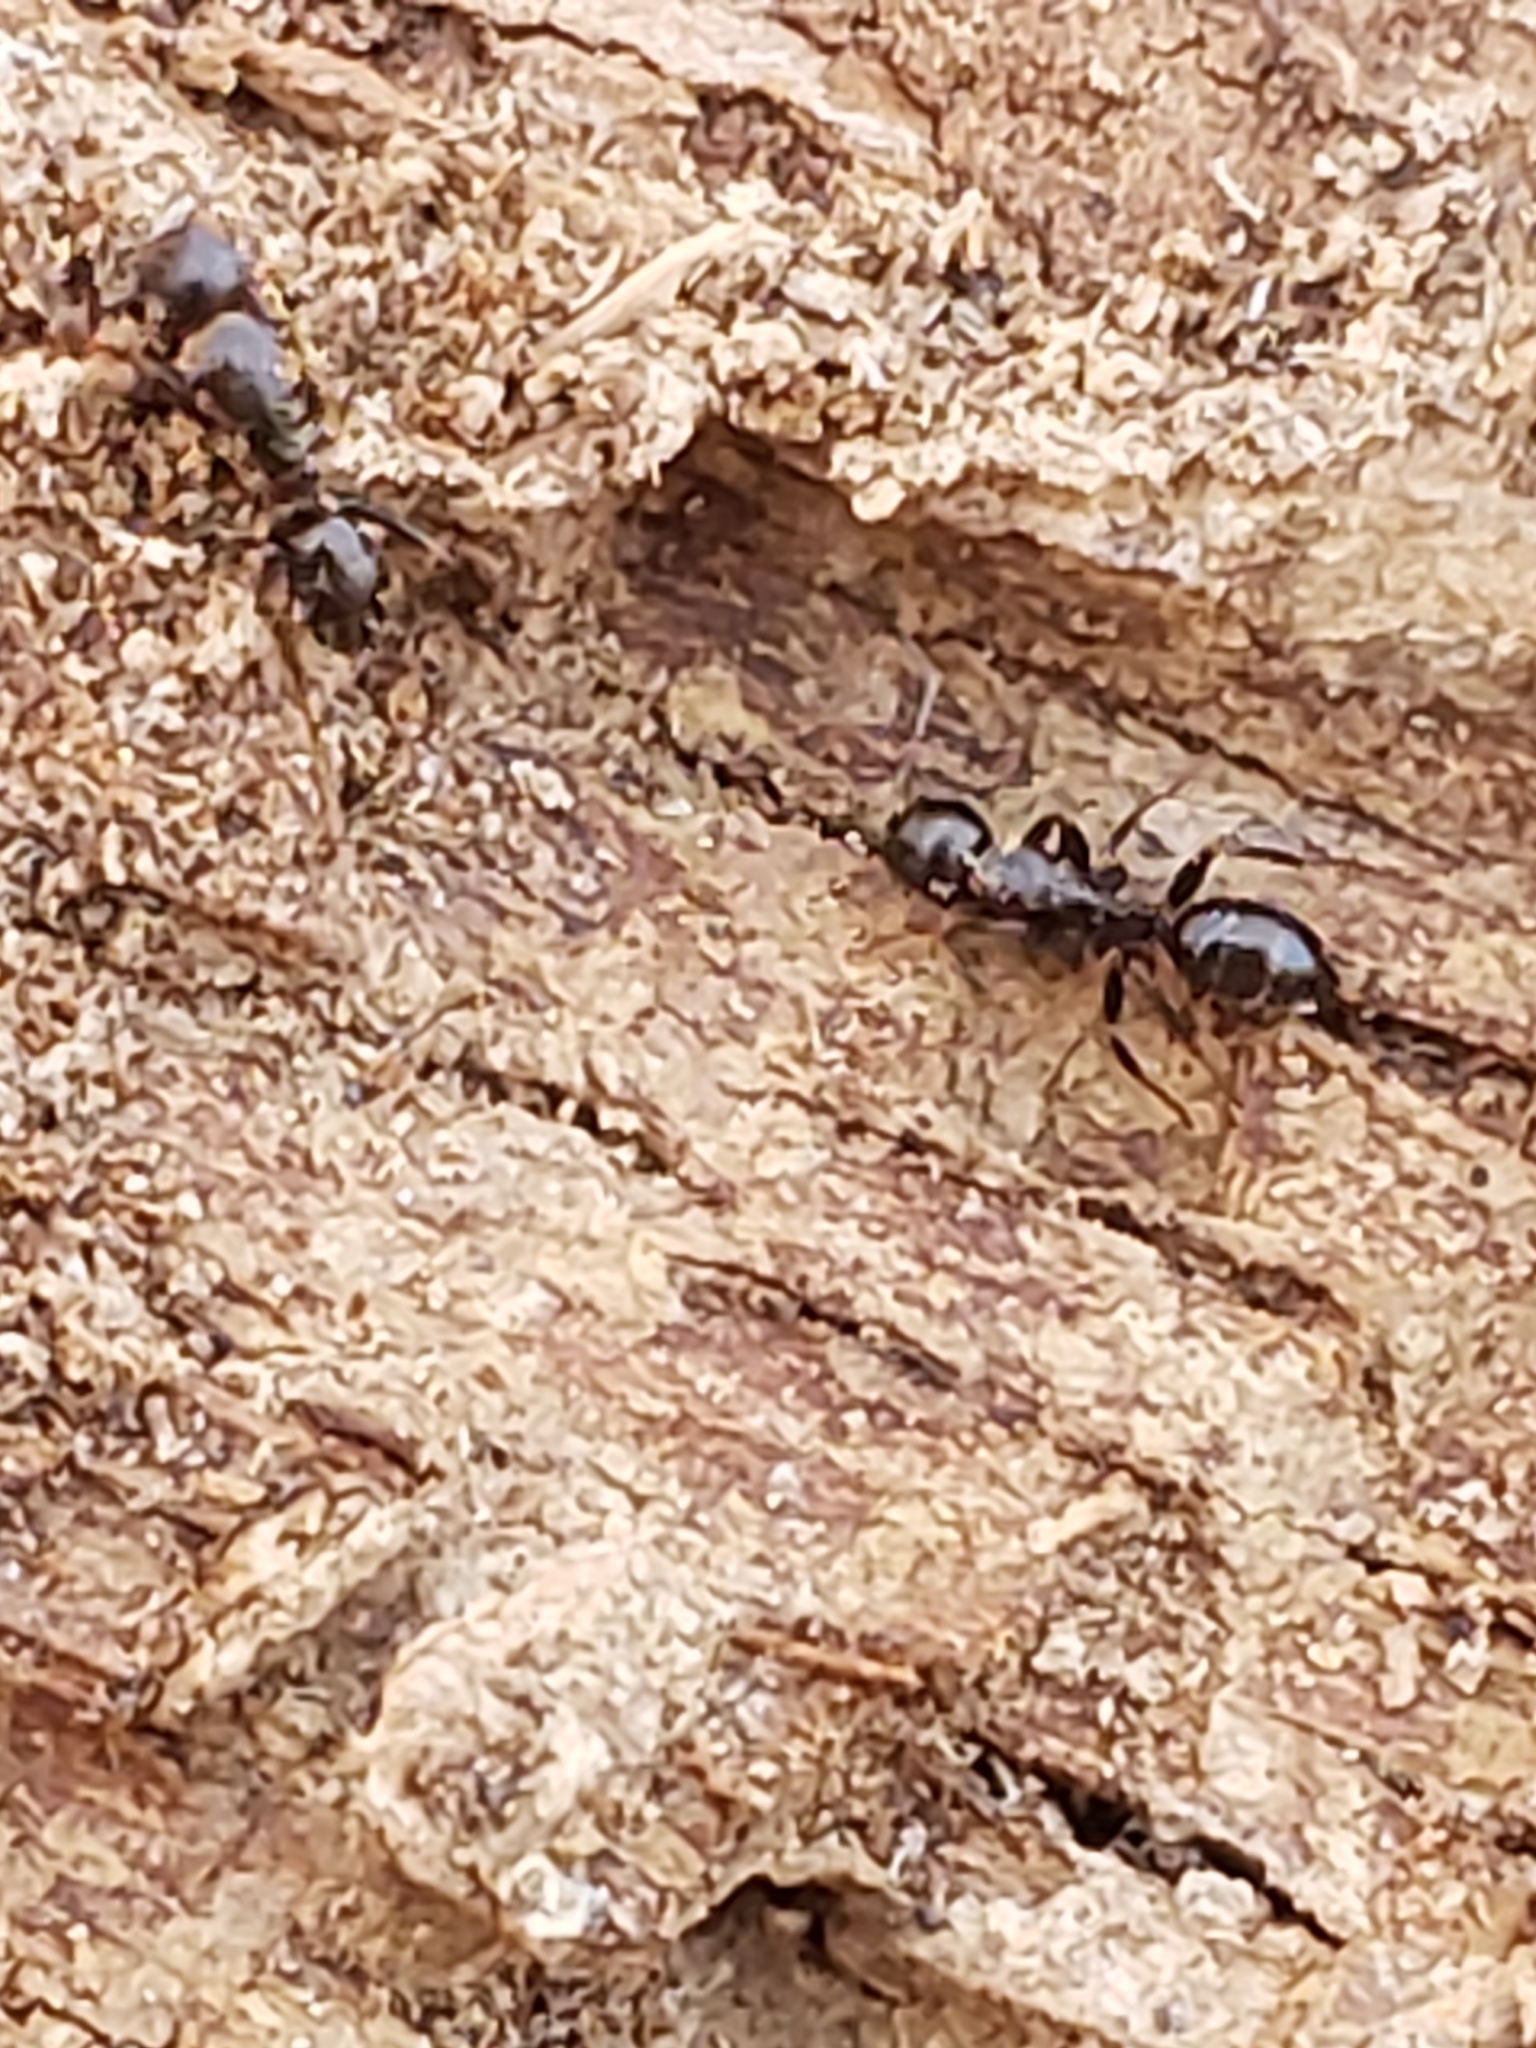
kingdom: Animalia
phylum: Arthropoda
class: Insecta
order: Hymenoptera
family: Formicidae
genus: Camponotus
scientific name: Camponotus nearcticus
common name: Smaller carpenter ant
